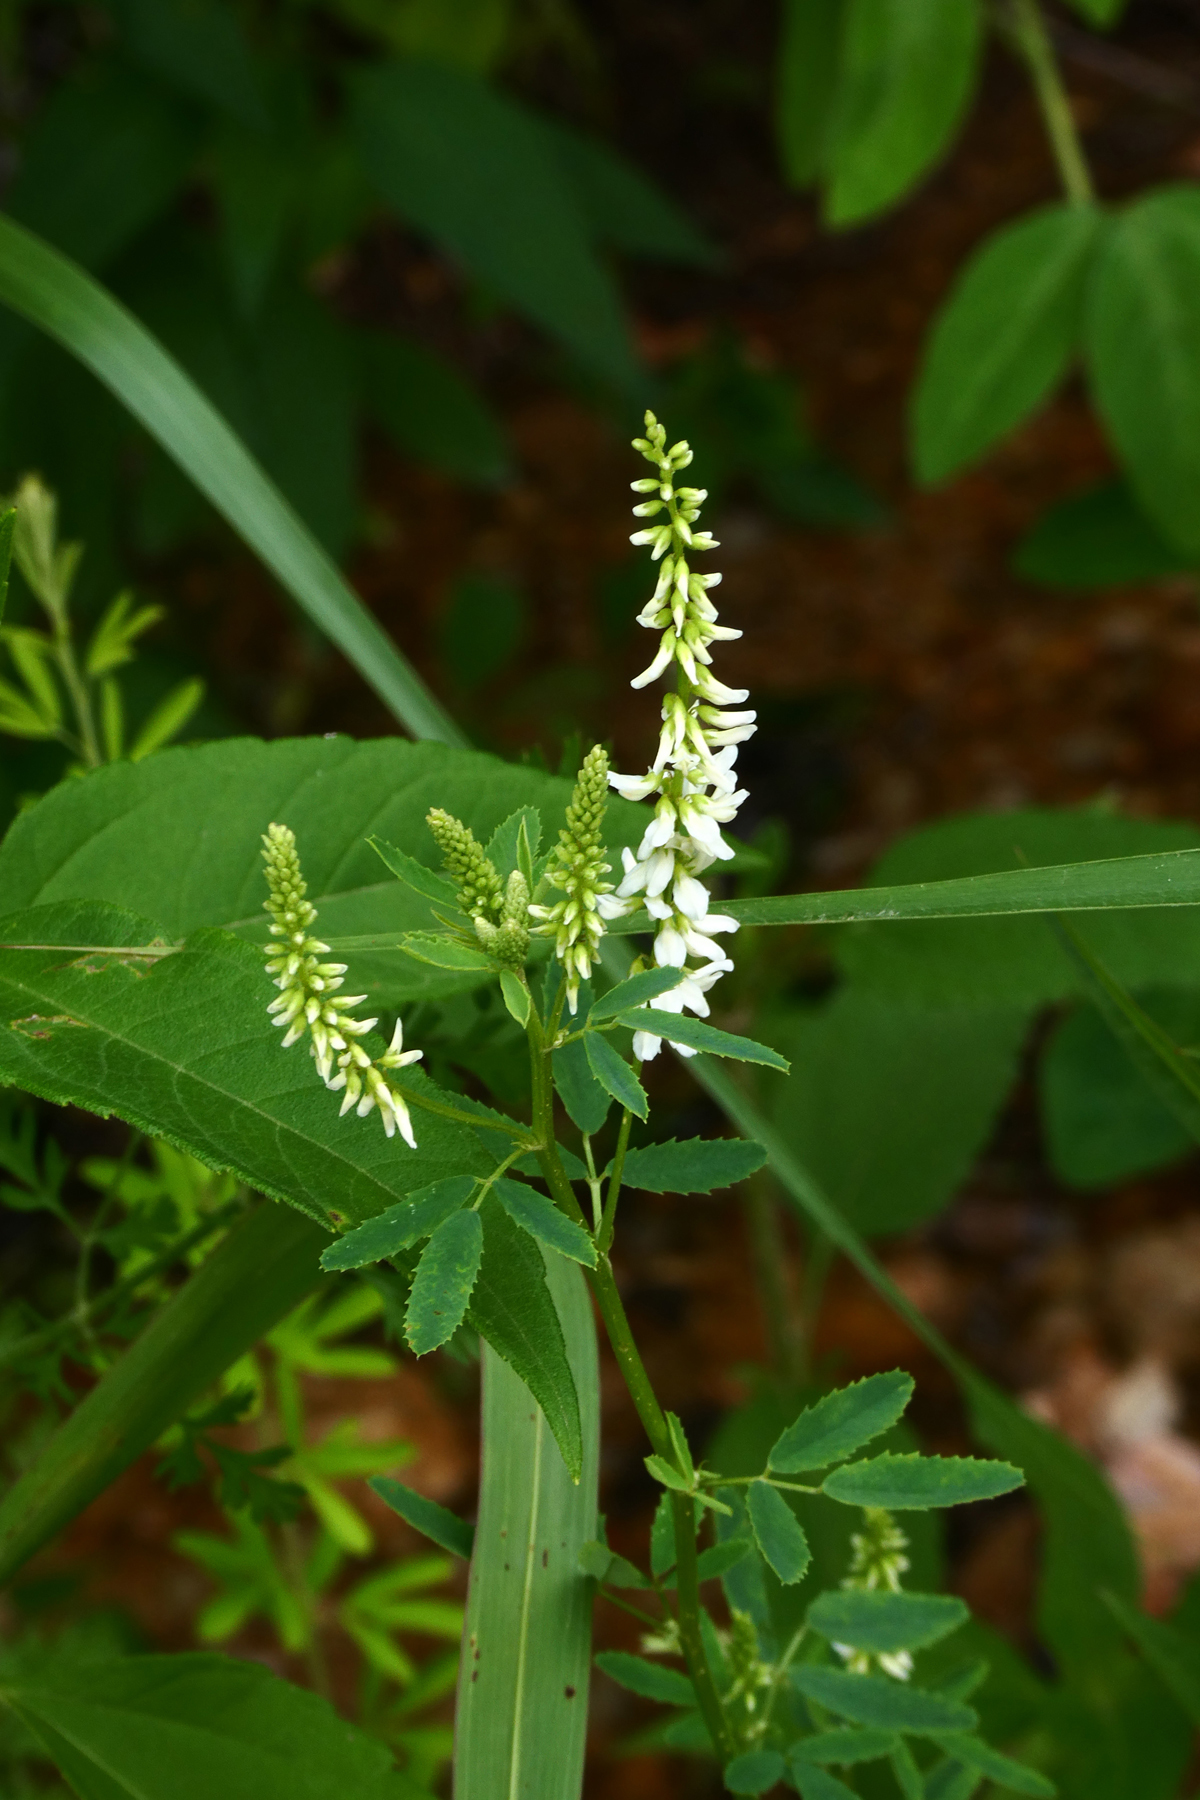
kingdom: Plantae
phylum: Tracheophyta
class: Magnoliopsida
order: Fabales
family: Fabaceae
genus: Melilotus
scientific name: Melilotus albus
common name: White melilot
